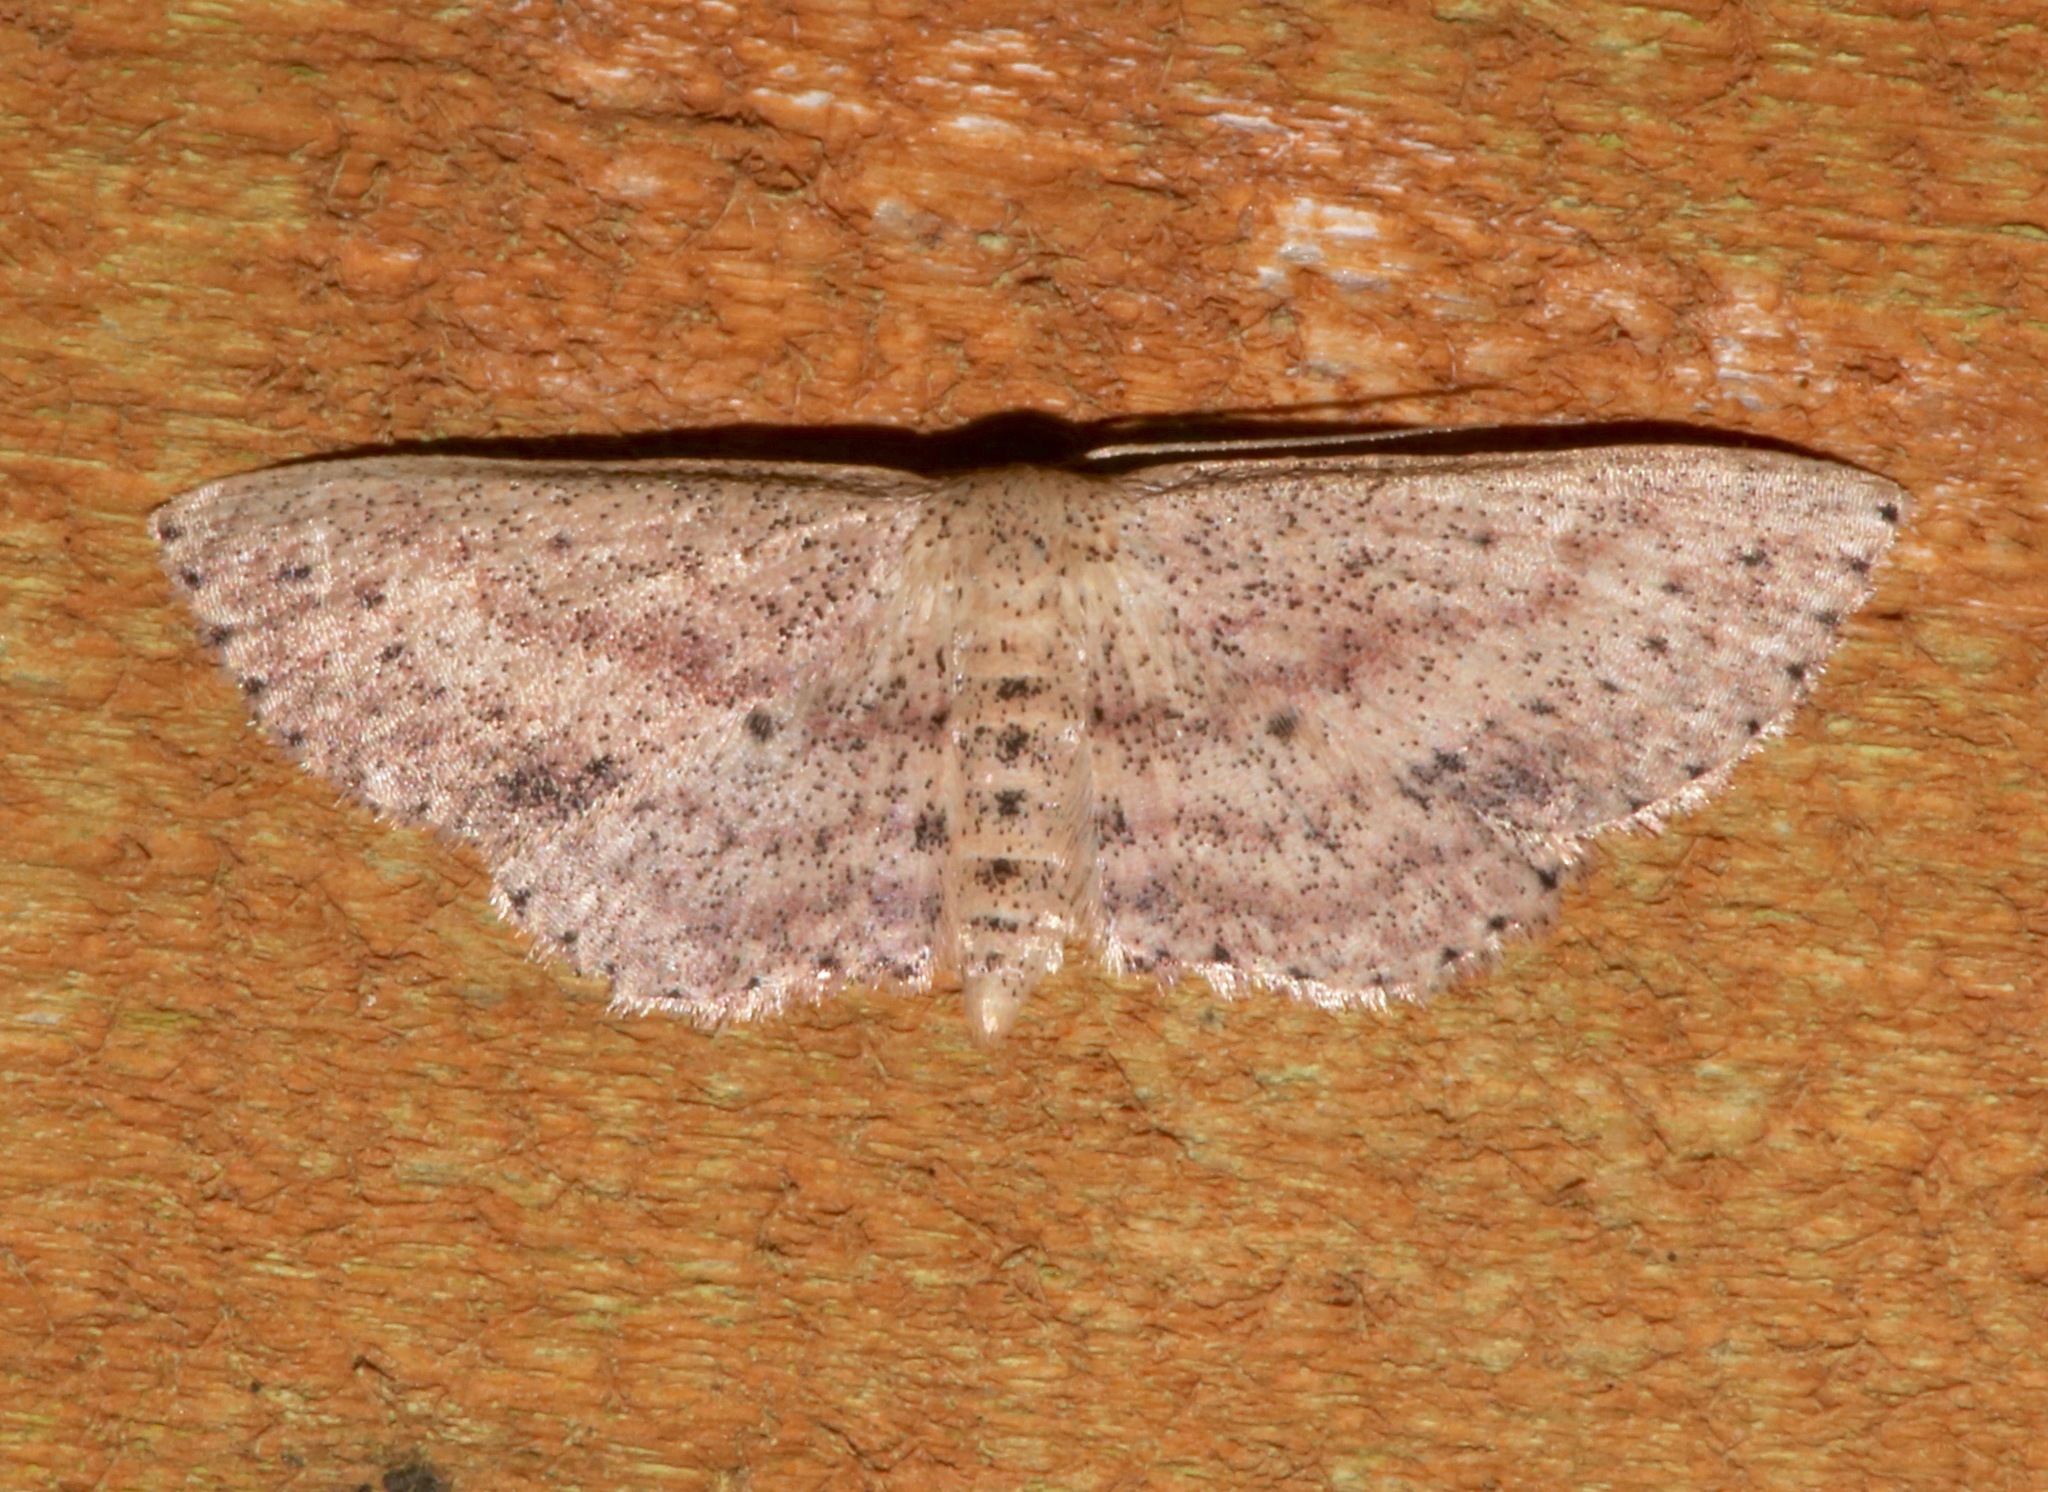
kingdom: Animalia
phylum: Arthropoda
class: Insecta
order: Lepidoptera
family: Geometridae
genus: Scopula
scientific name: Scopula aemulata
